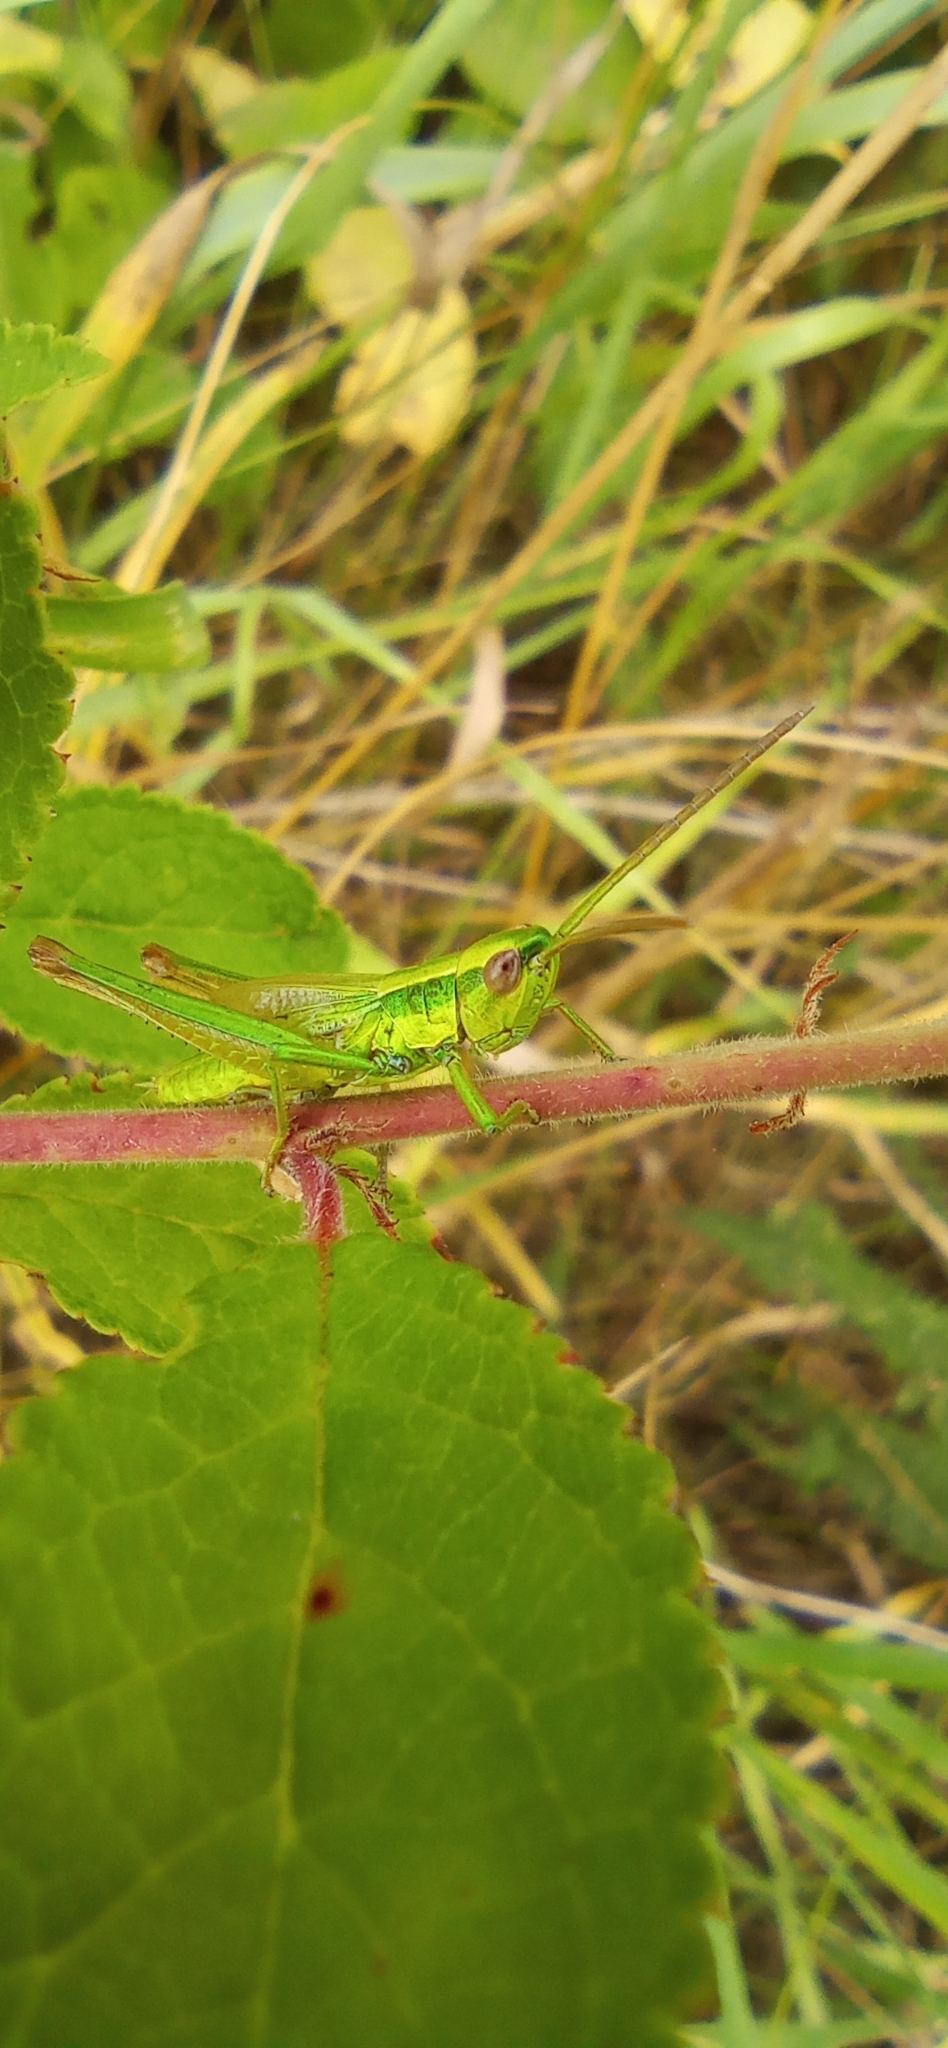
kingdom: Animalia
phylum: Arthropoda
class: Insecta
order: Orthoptera
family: Acrididae
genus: Euthystira
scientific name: Euthystira brachyptera
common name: Small gold grasshopper
